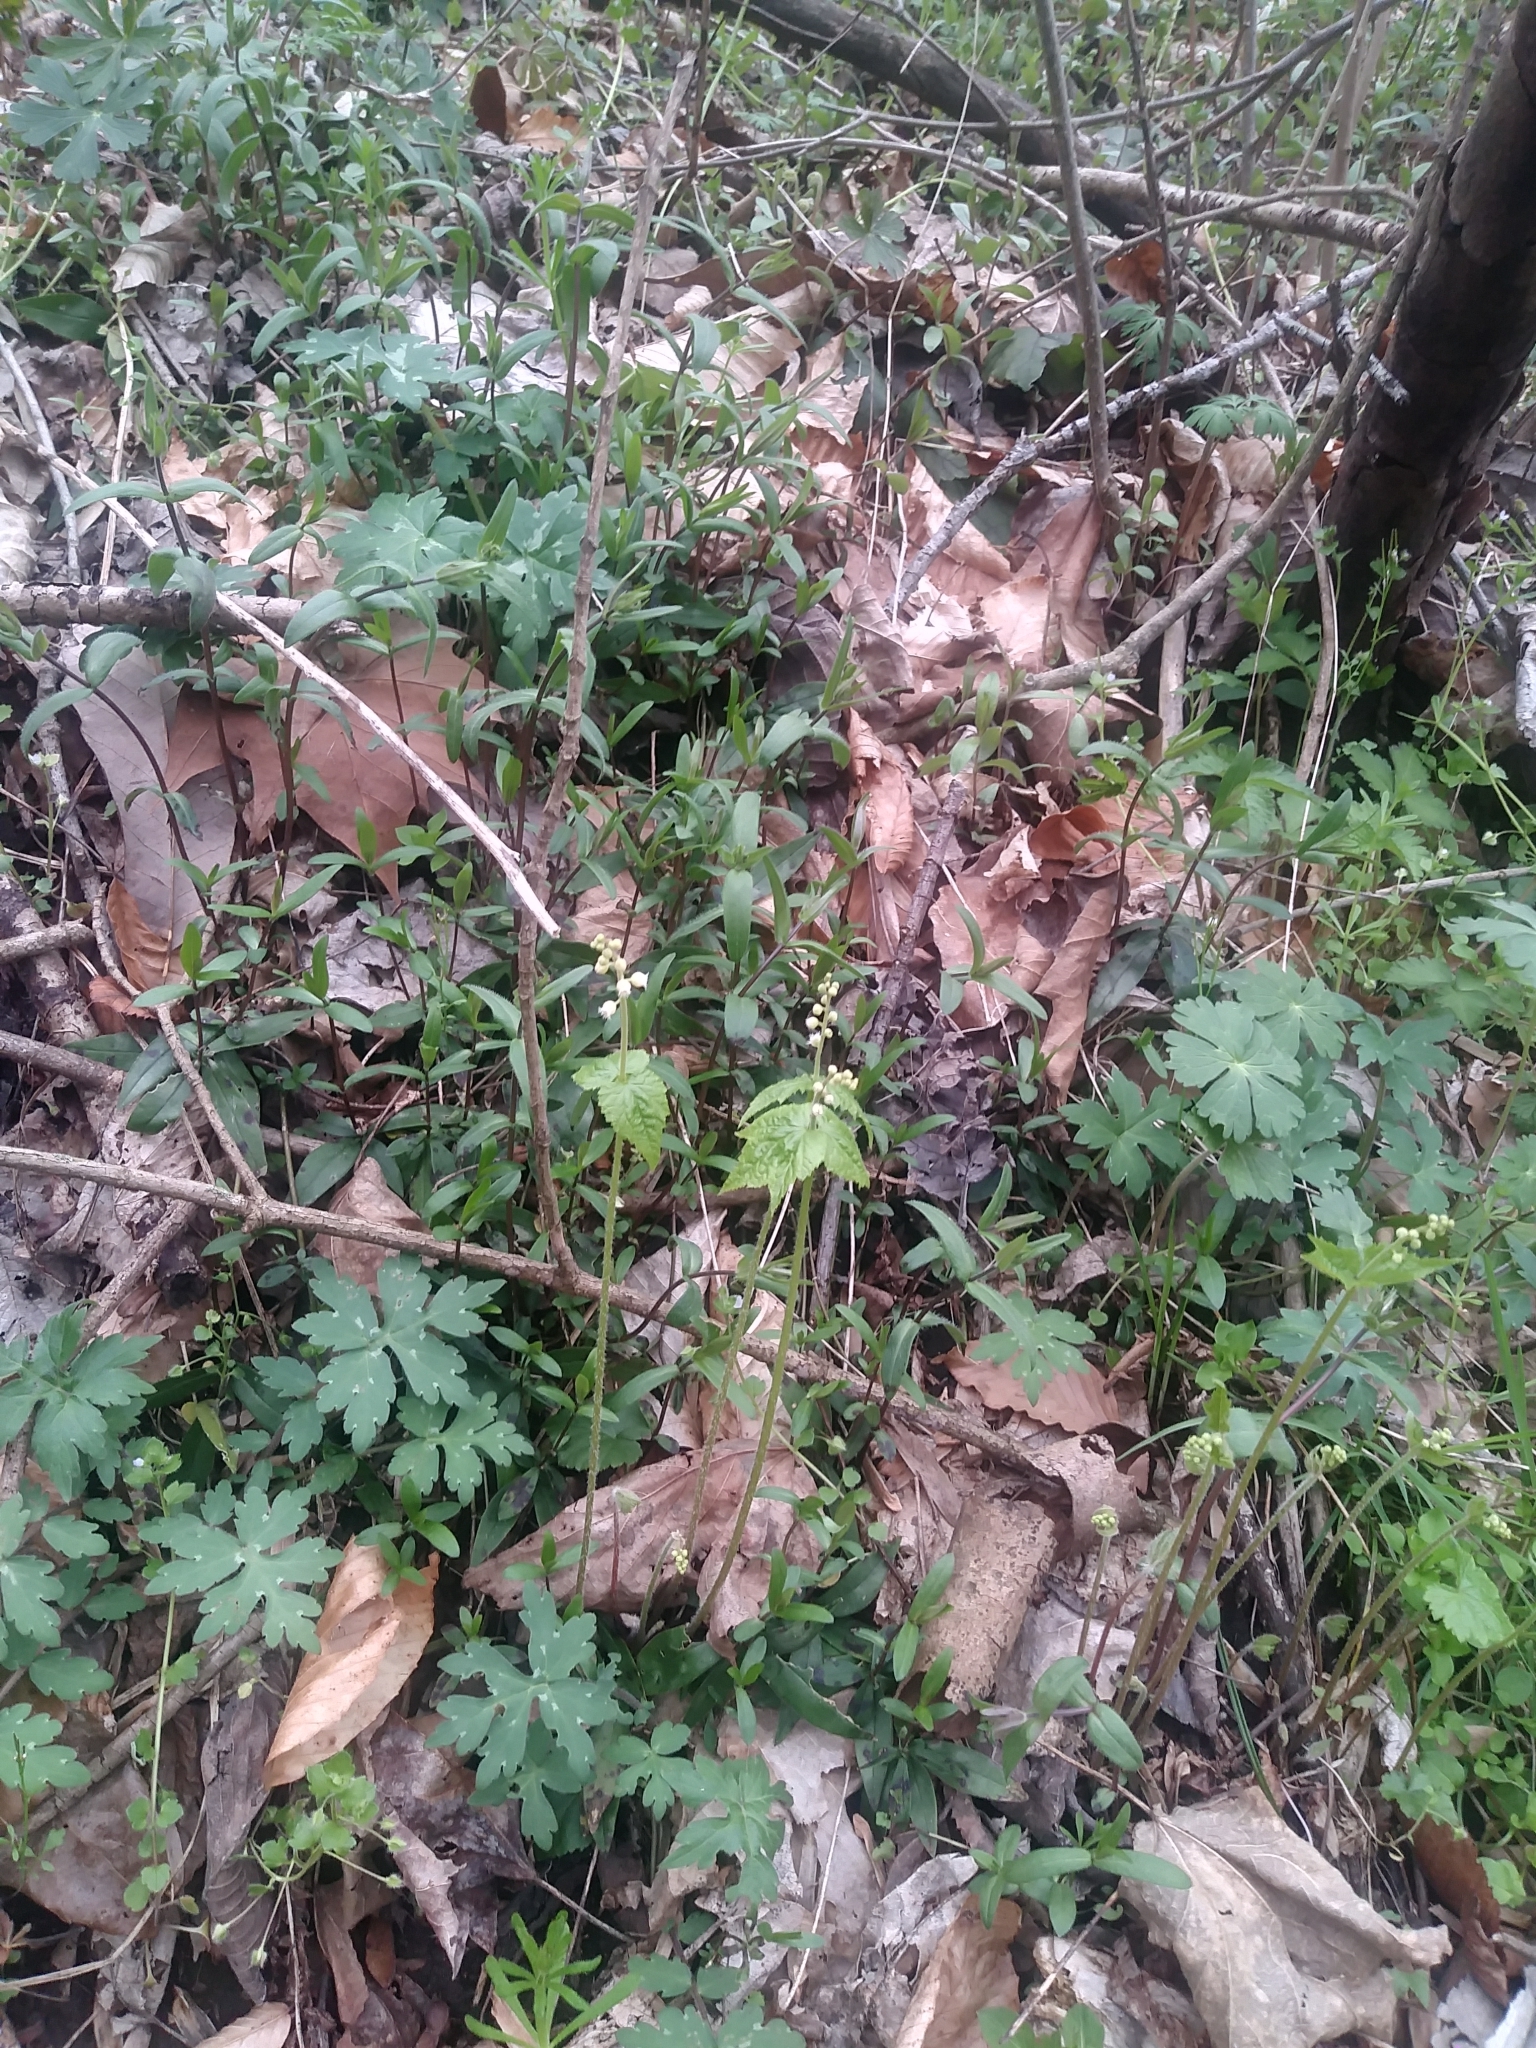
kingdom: Plantae
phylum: Tracheophyta
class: Magnoliopsida
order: Saxifragales
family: Saxifragaceae
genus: Mitella
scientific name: Mitella diphylla
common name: Coolwort
